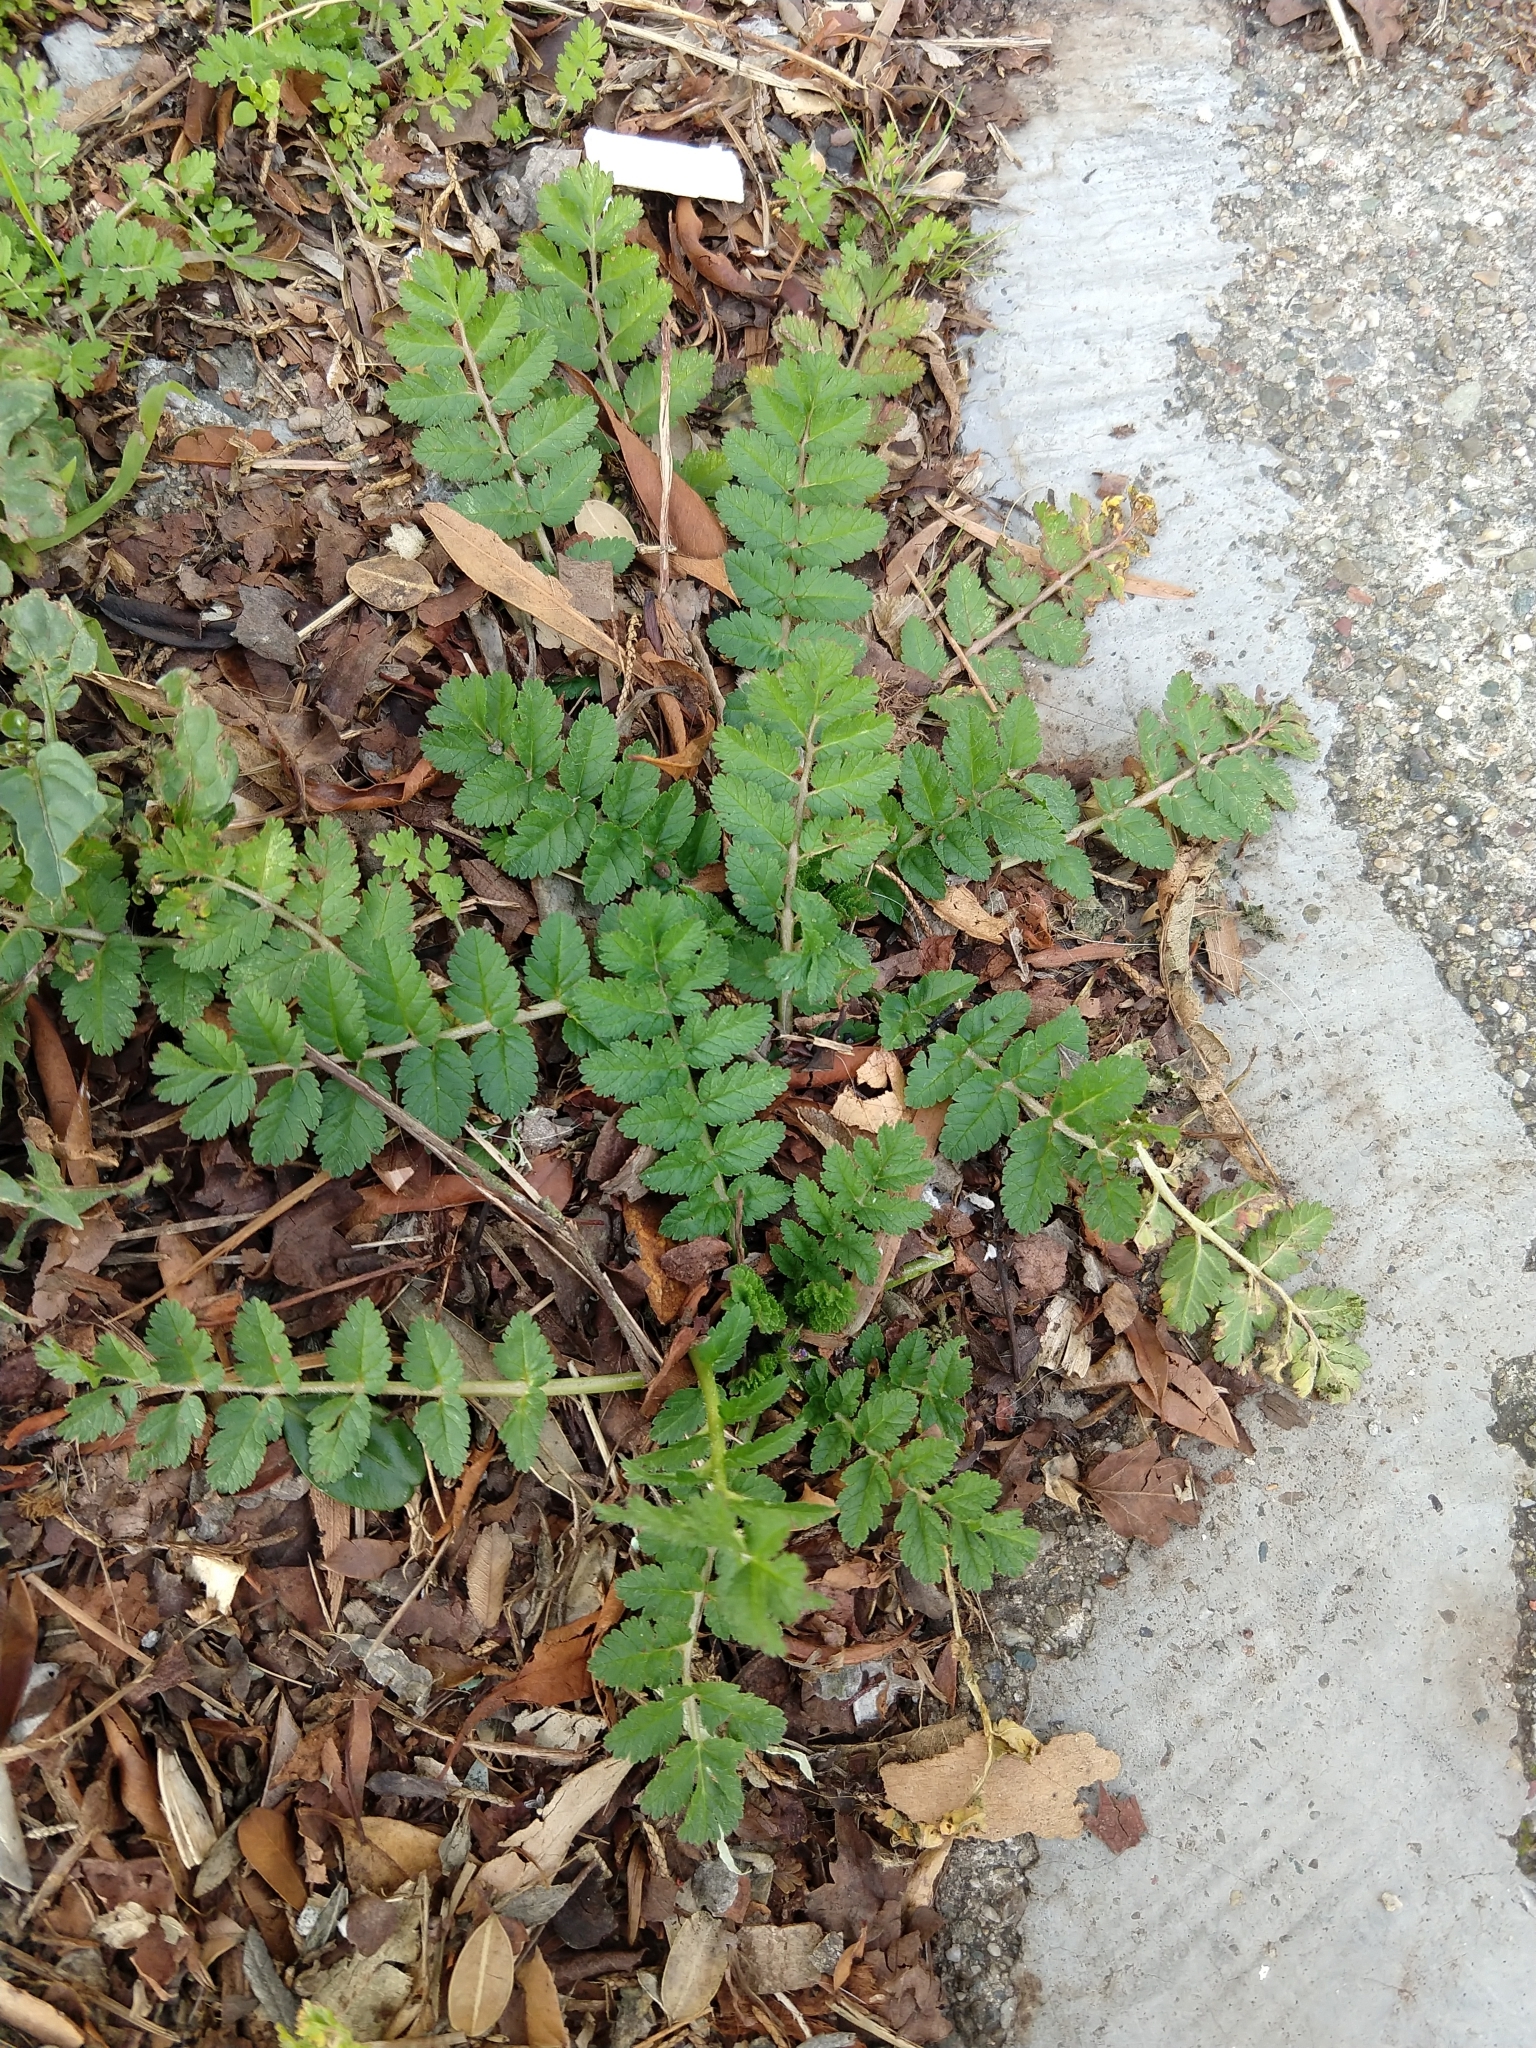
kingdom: Plantae
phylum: Tracheophyta
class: Magnoliopsida
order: Geraniales
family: Geraniaceae
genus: Erodium
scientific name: Erodium moschatum
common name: Musk stork's-bill
